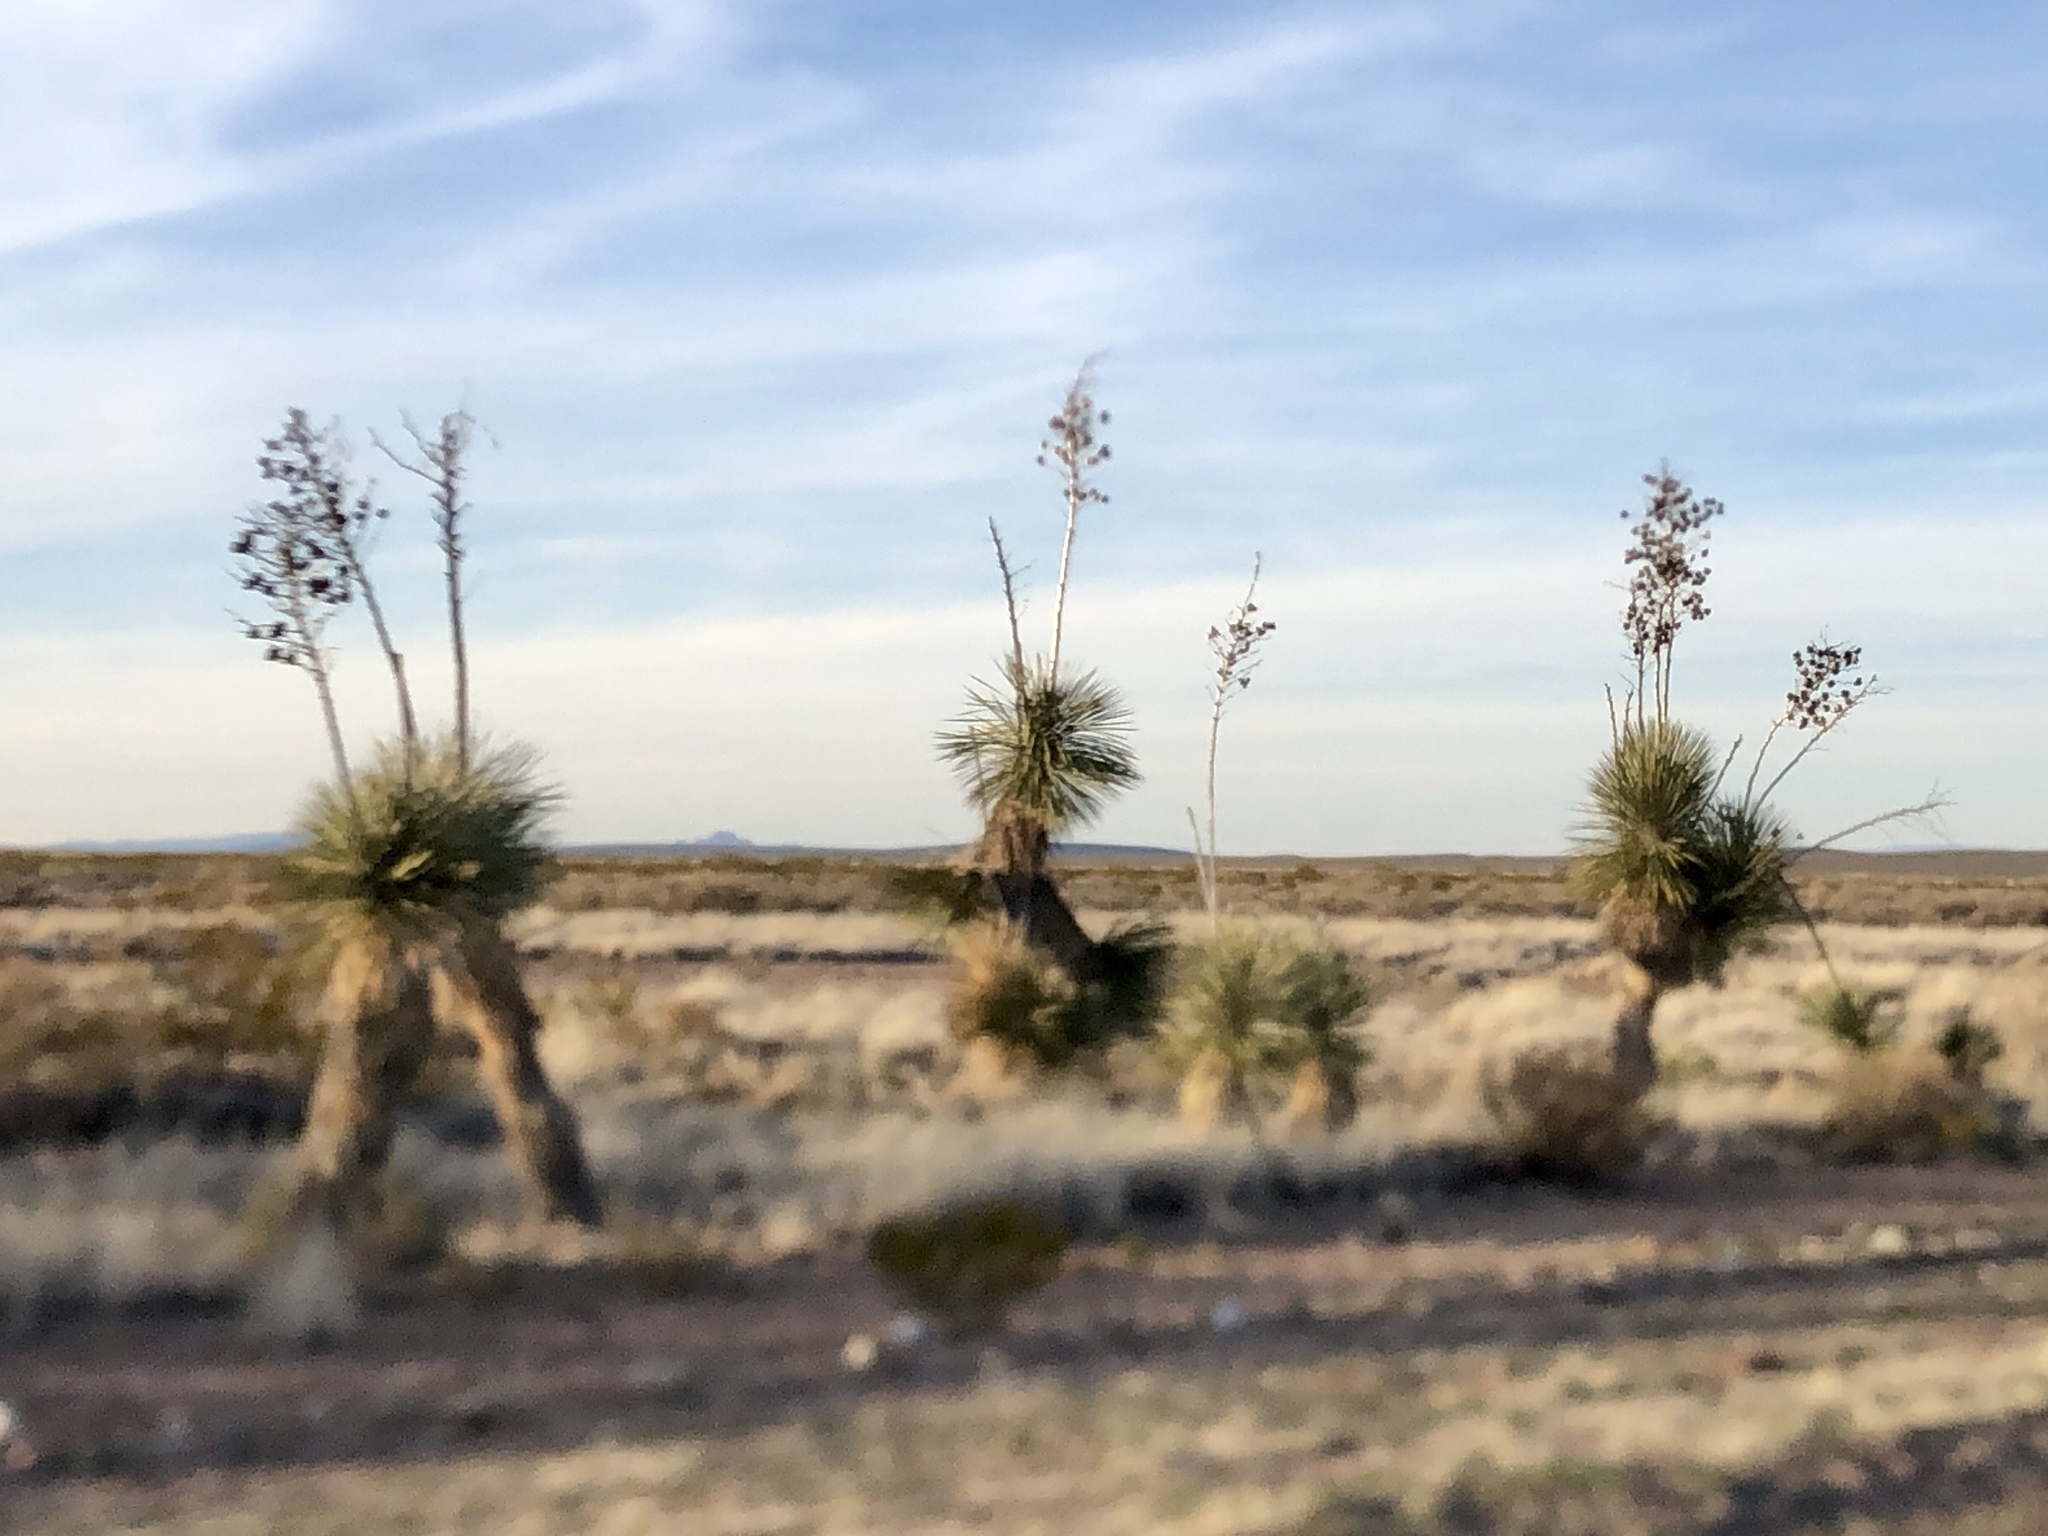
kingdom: Plantae
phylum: Tracheophyta
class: Liliopsida
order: Asparagales
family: Asparagaceae
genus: Yucca
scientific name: Yucca elata
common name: Palmella
